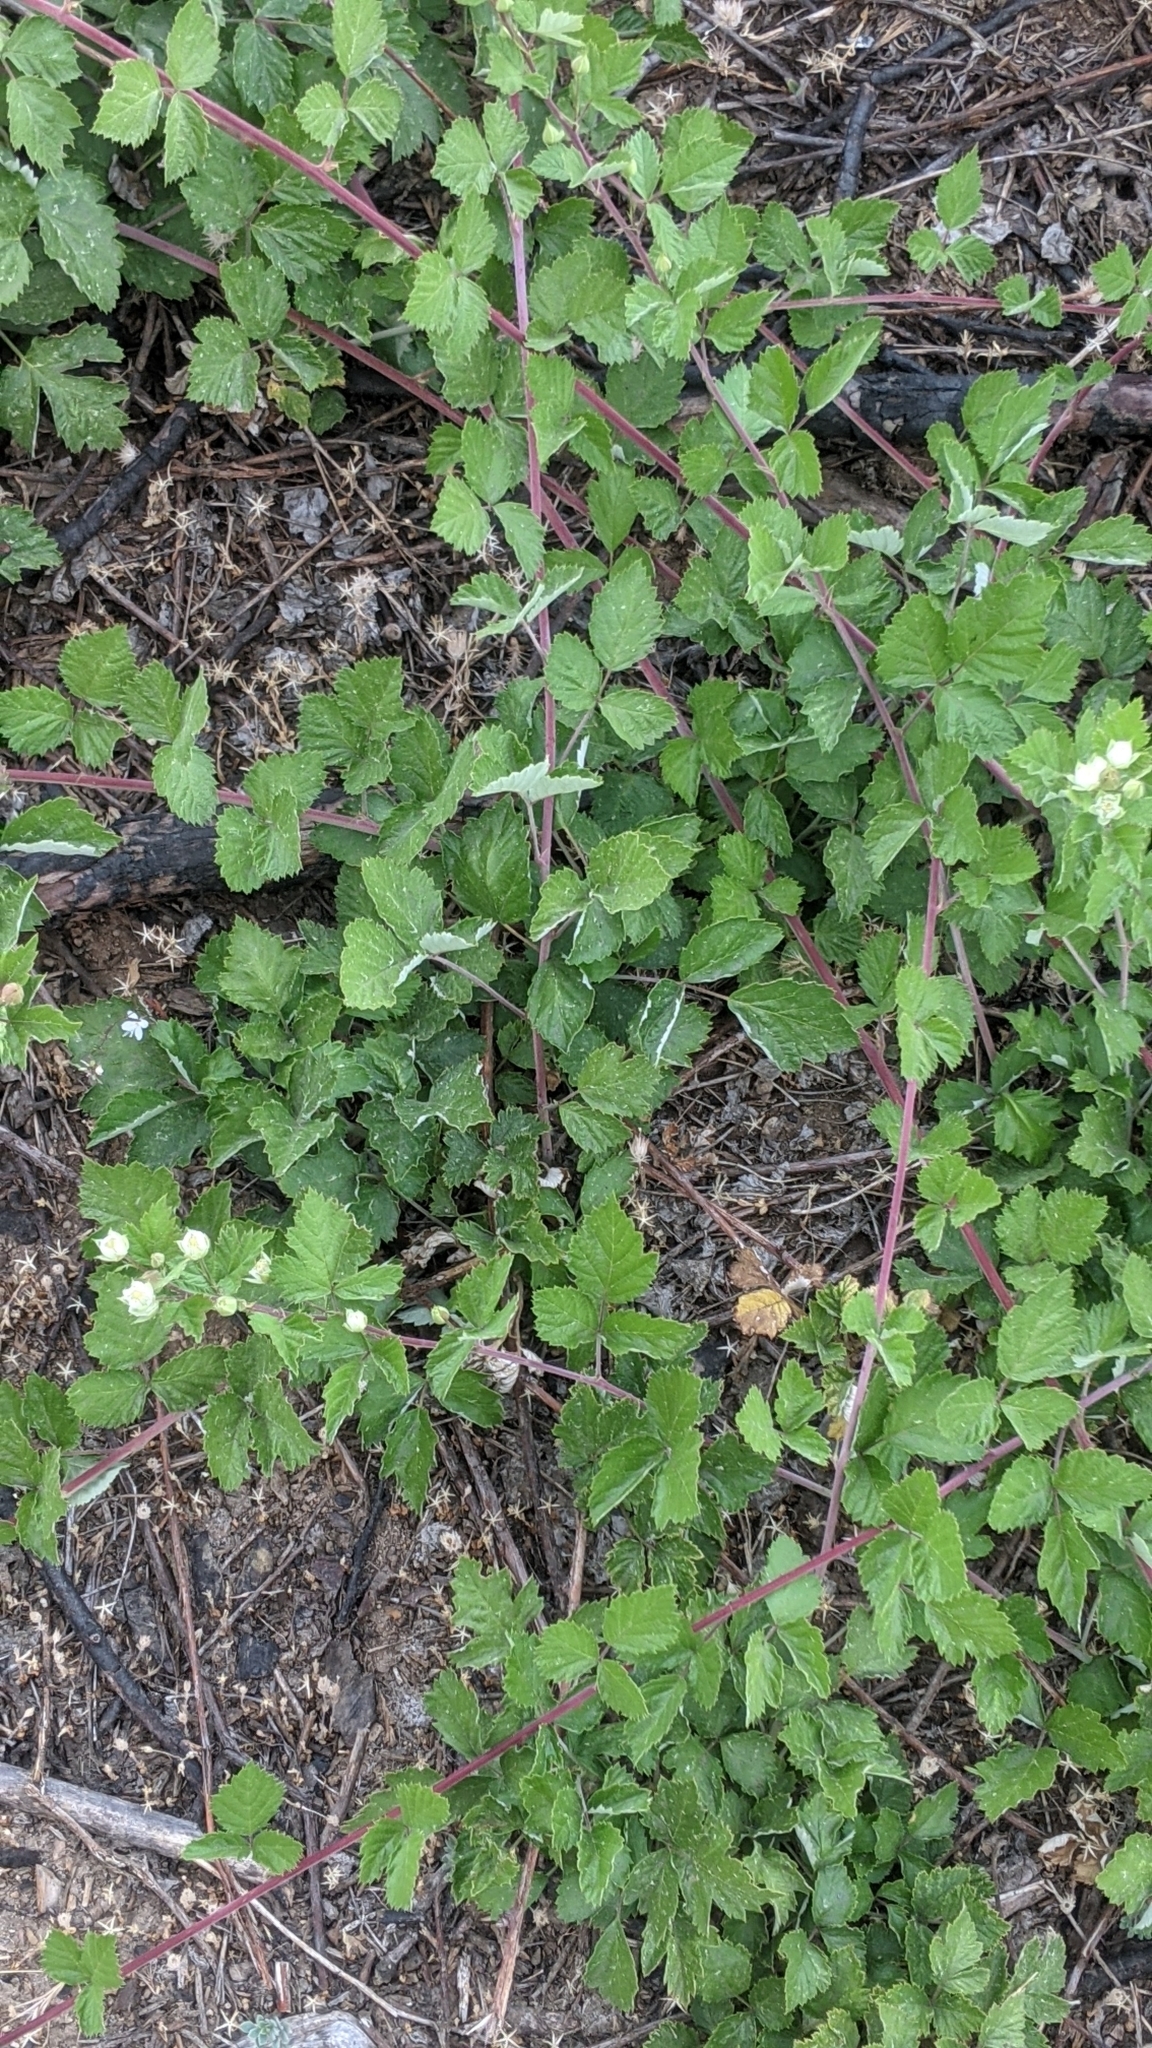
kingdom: Plantae
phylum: Tracheophyta
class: Magnoliopsida
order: Rosales
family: Rosaceae
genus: Rubus
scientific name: Rubus ursinus
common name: Pacific blackberry
